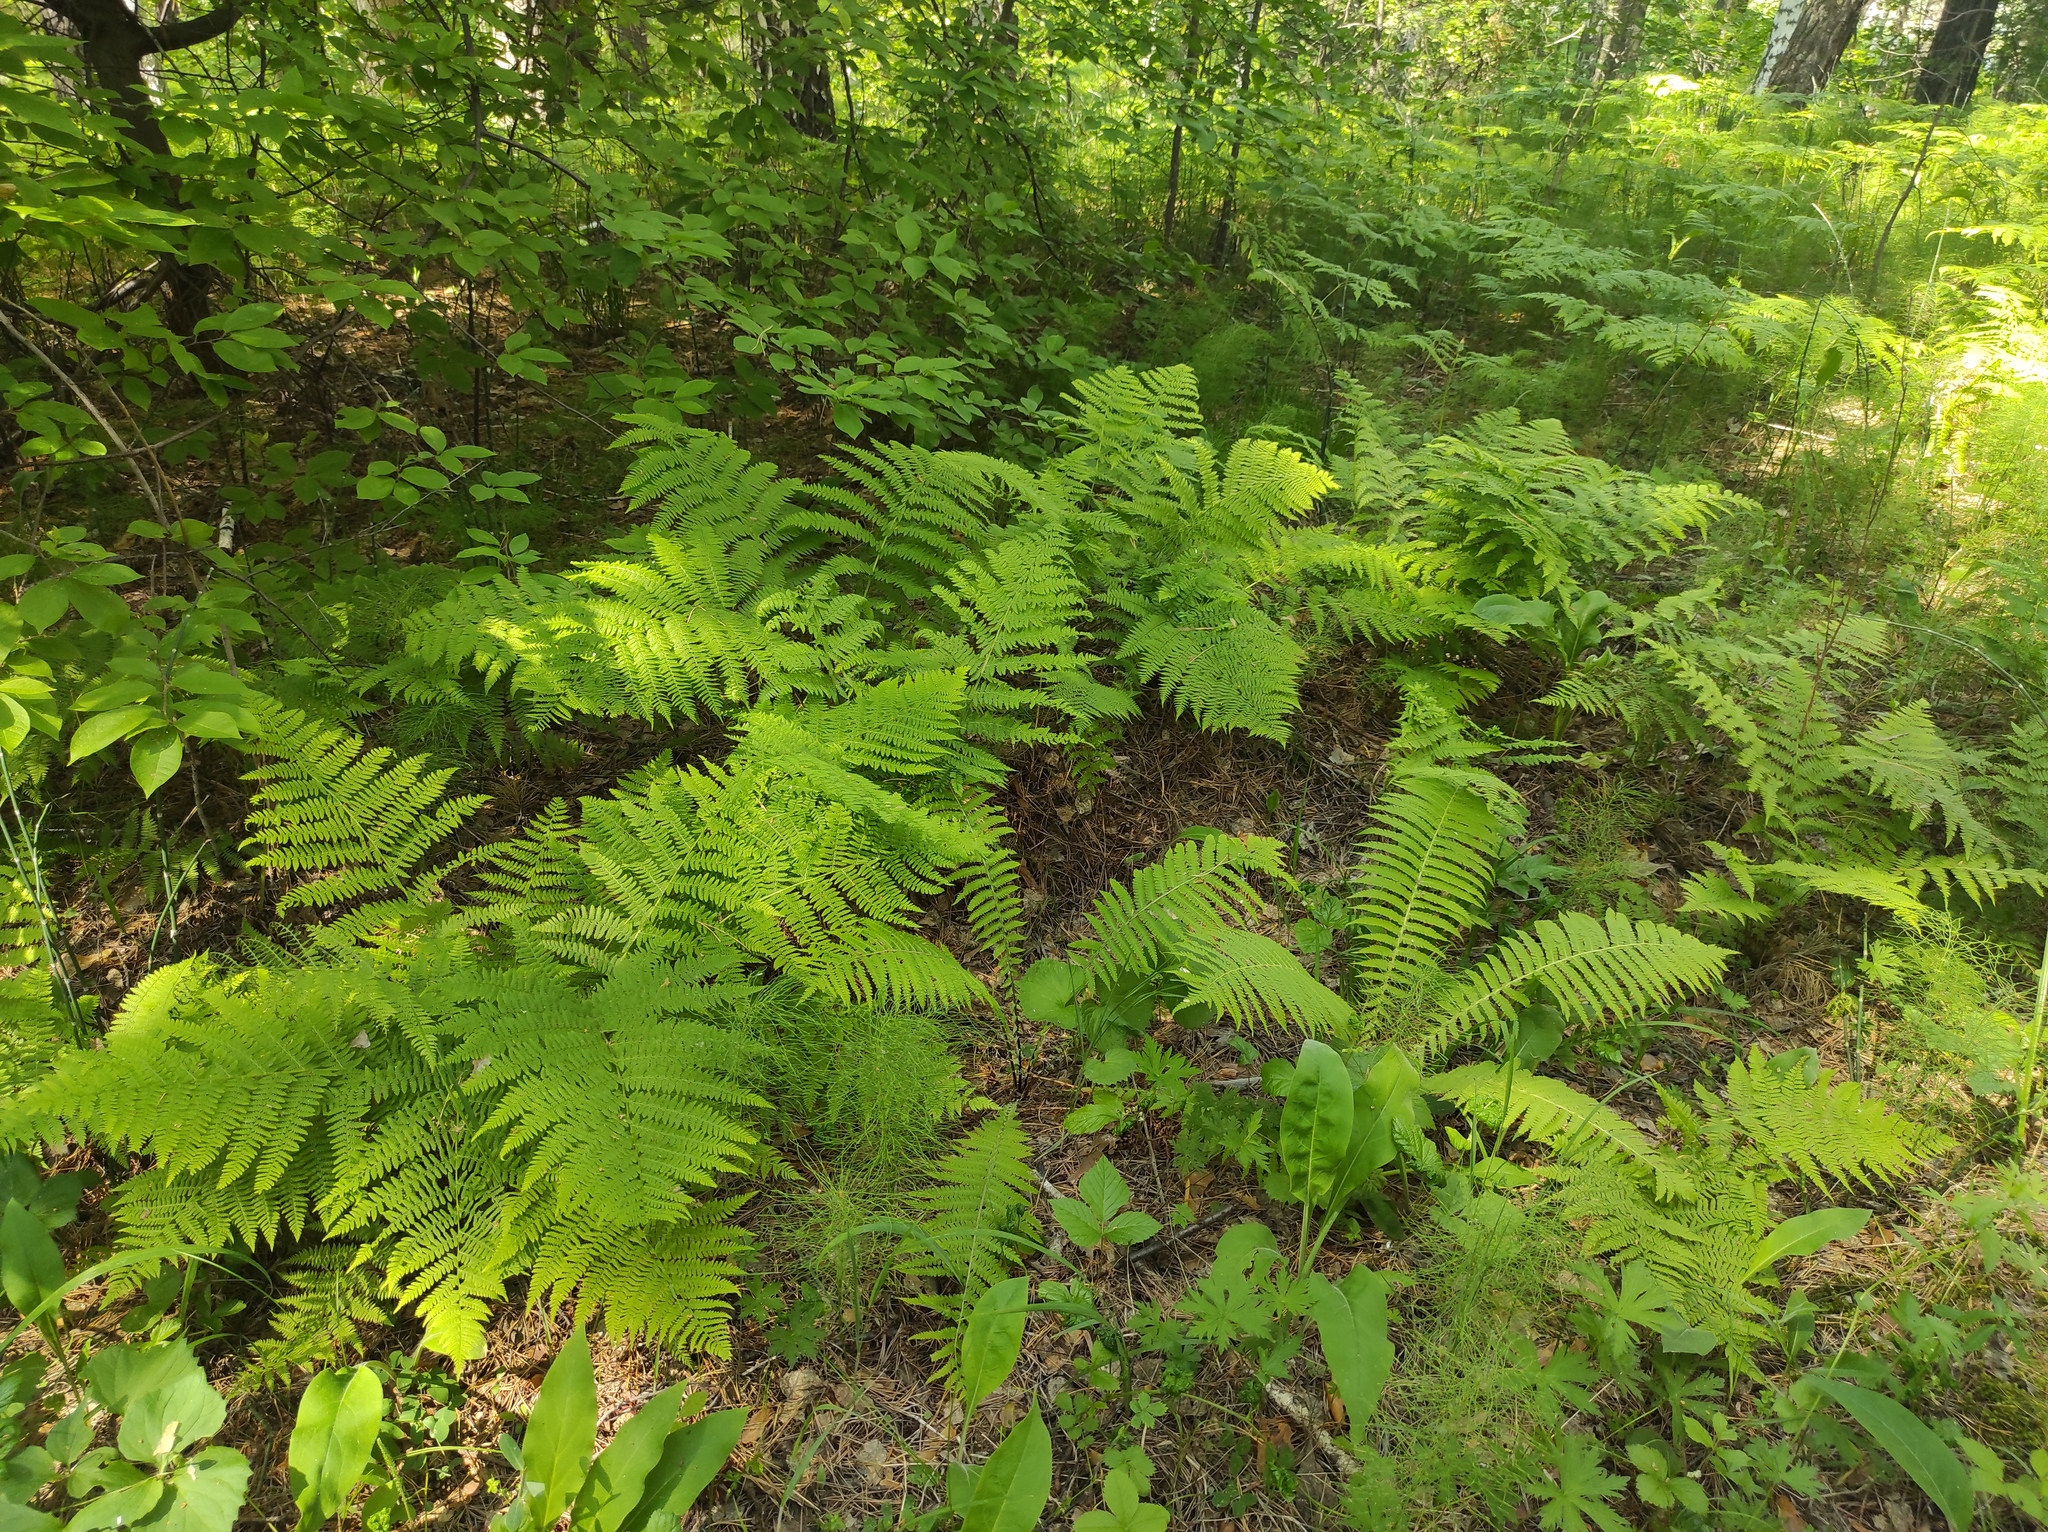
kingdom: Plantae
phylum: Tracheophyta
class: Polypodiopsida
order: Polypodiales
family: Athyriaceae
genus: Athyrium
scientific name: Athyrium filix-femina
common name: Lady fern
